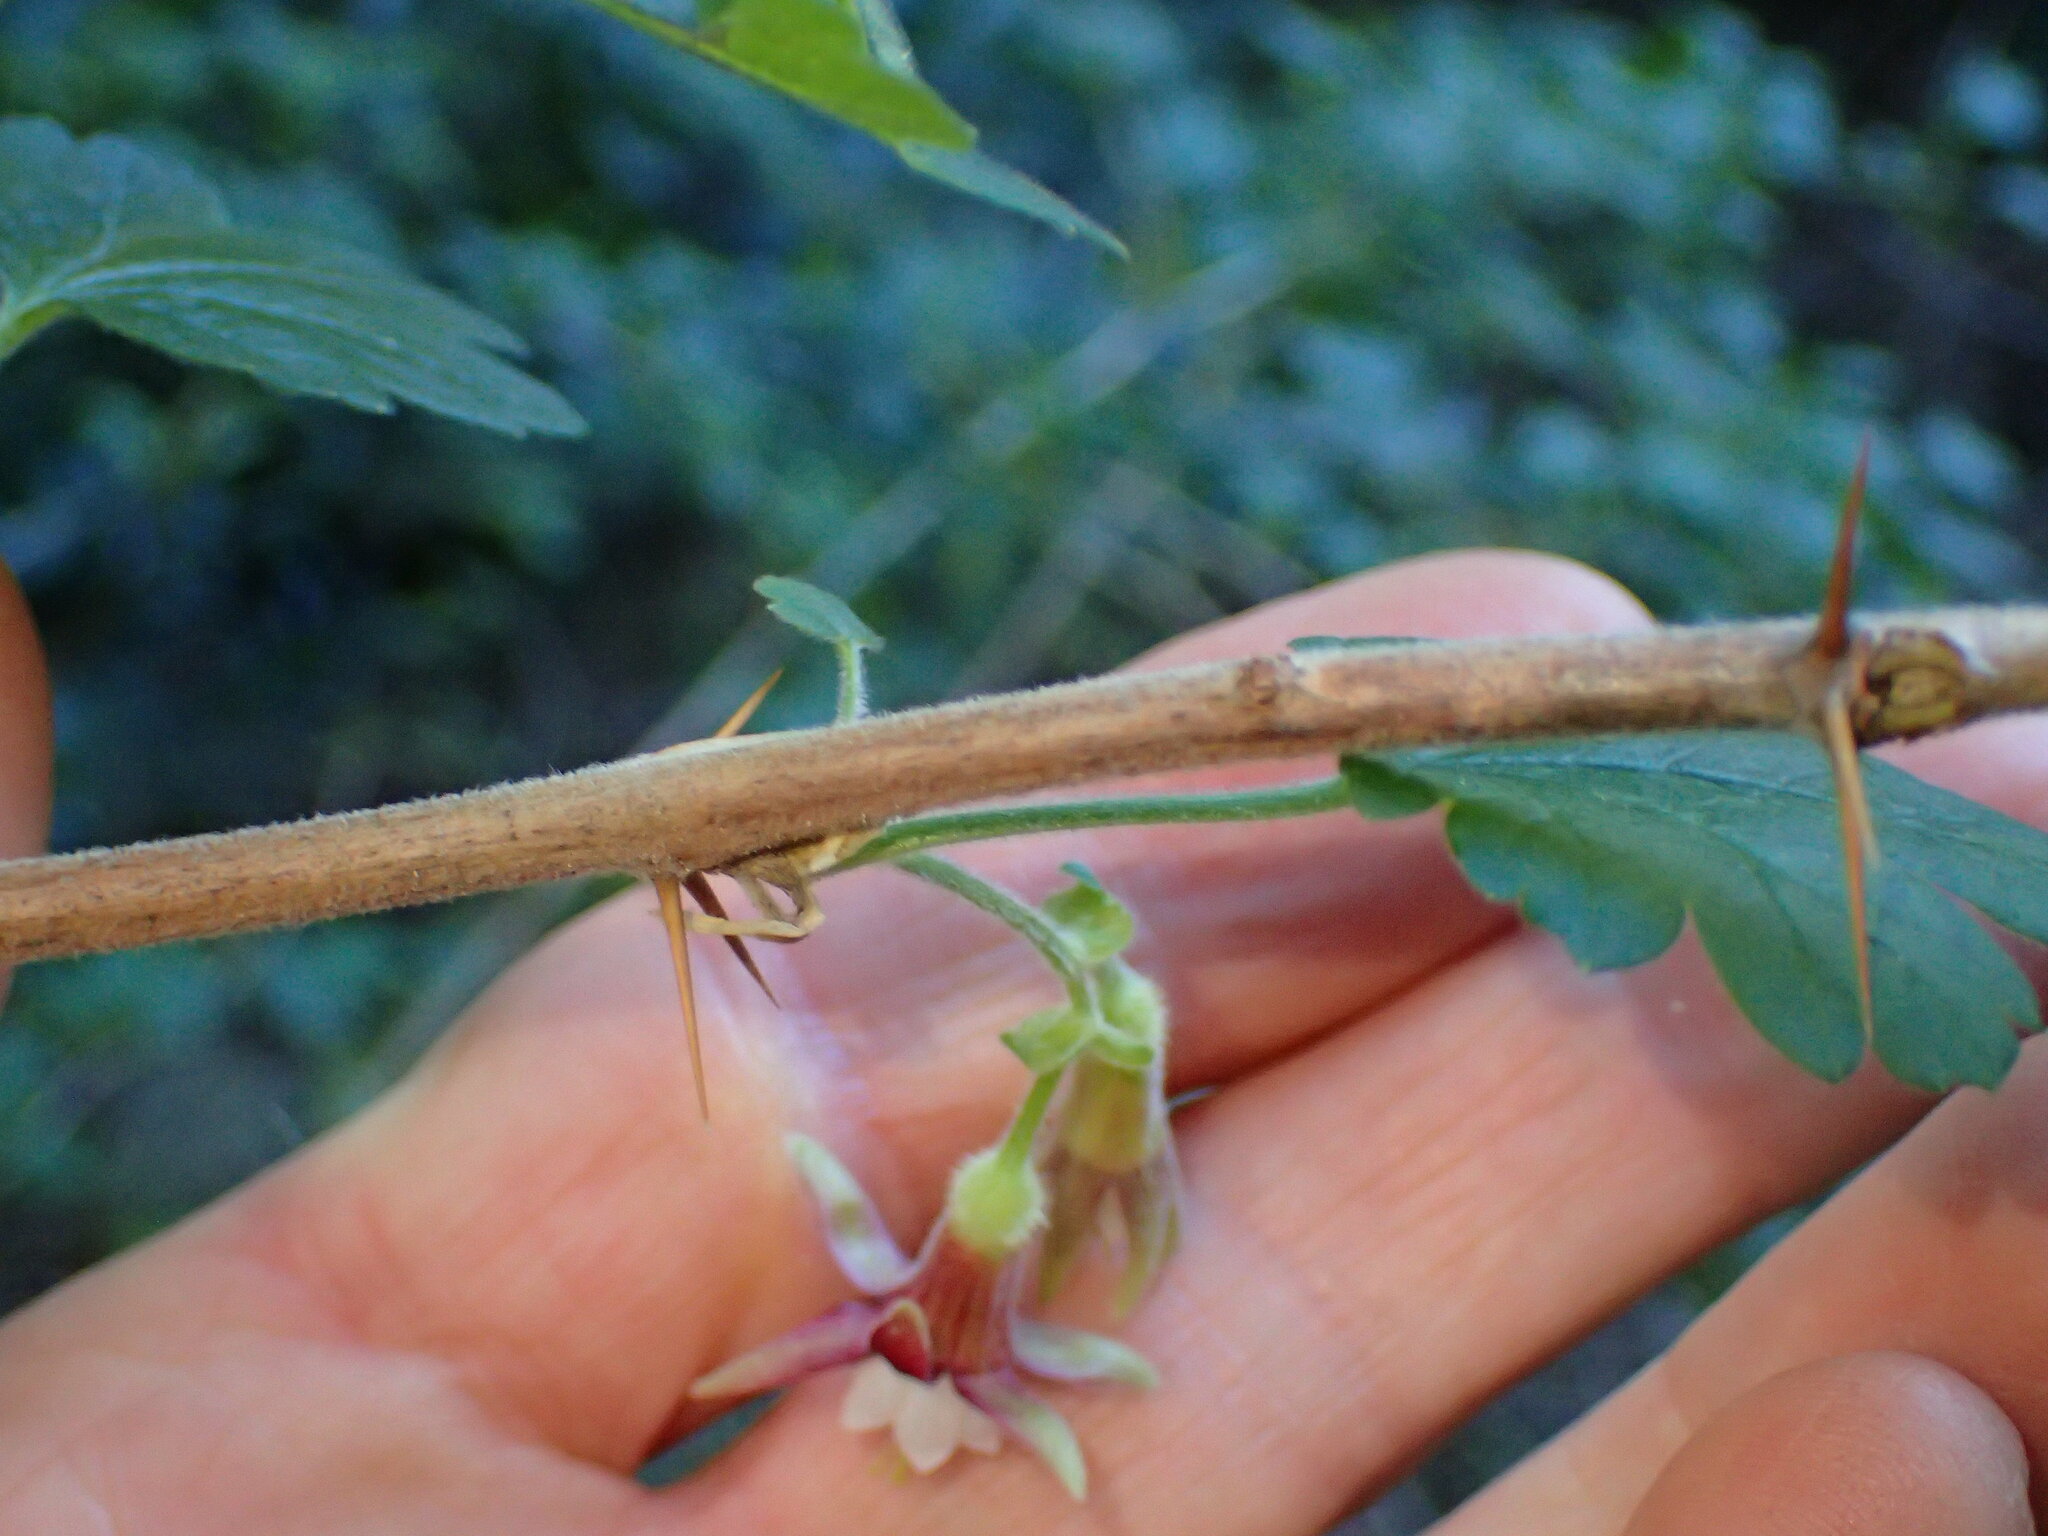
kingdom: Plantae
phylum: Tracheophyta
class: Magnoliopsida
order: Saxifragales
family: Grossulariaceae
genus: Ribes
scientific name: Ribes amarum
